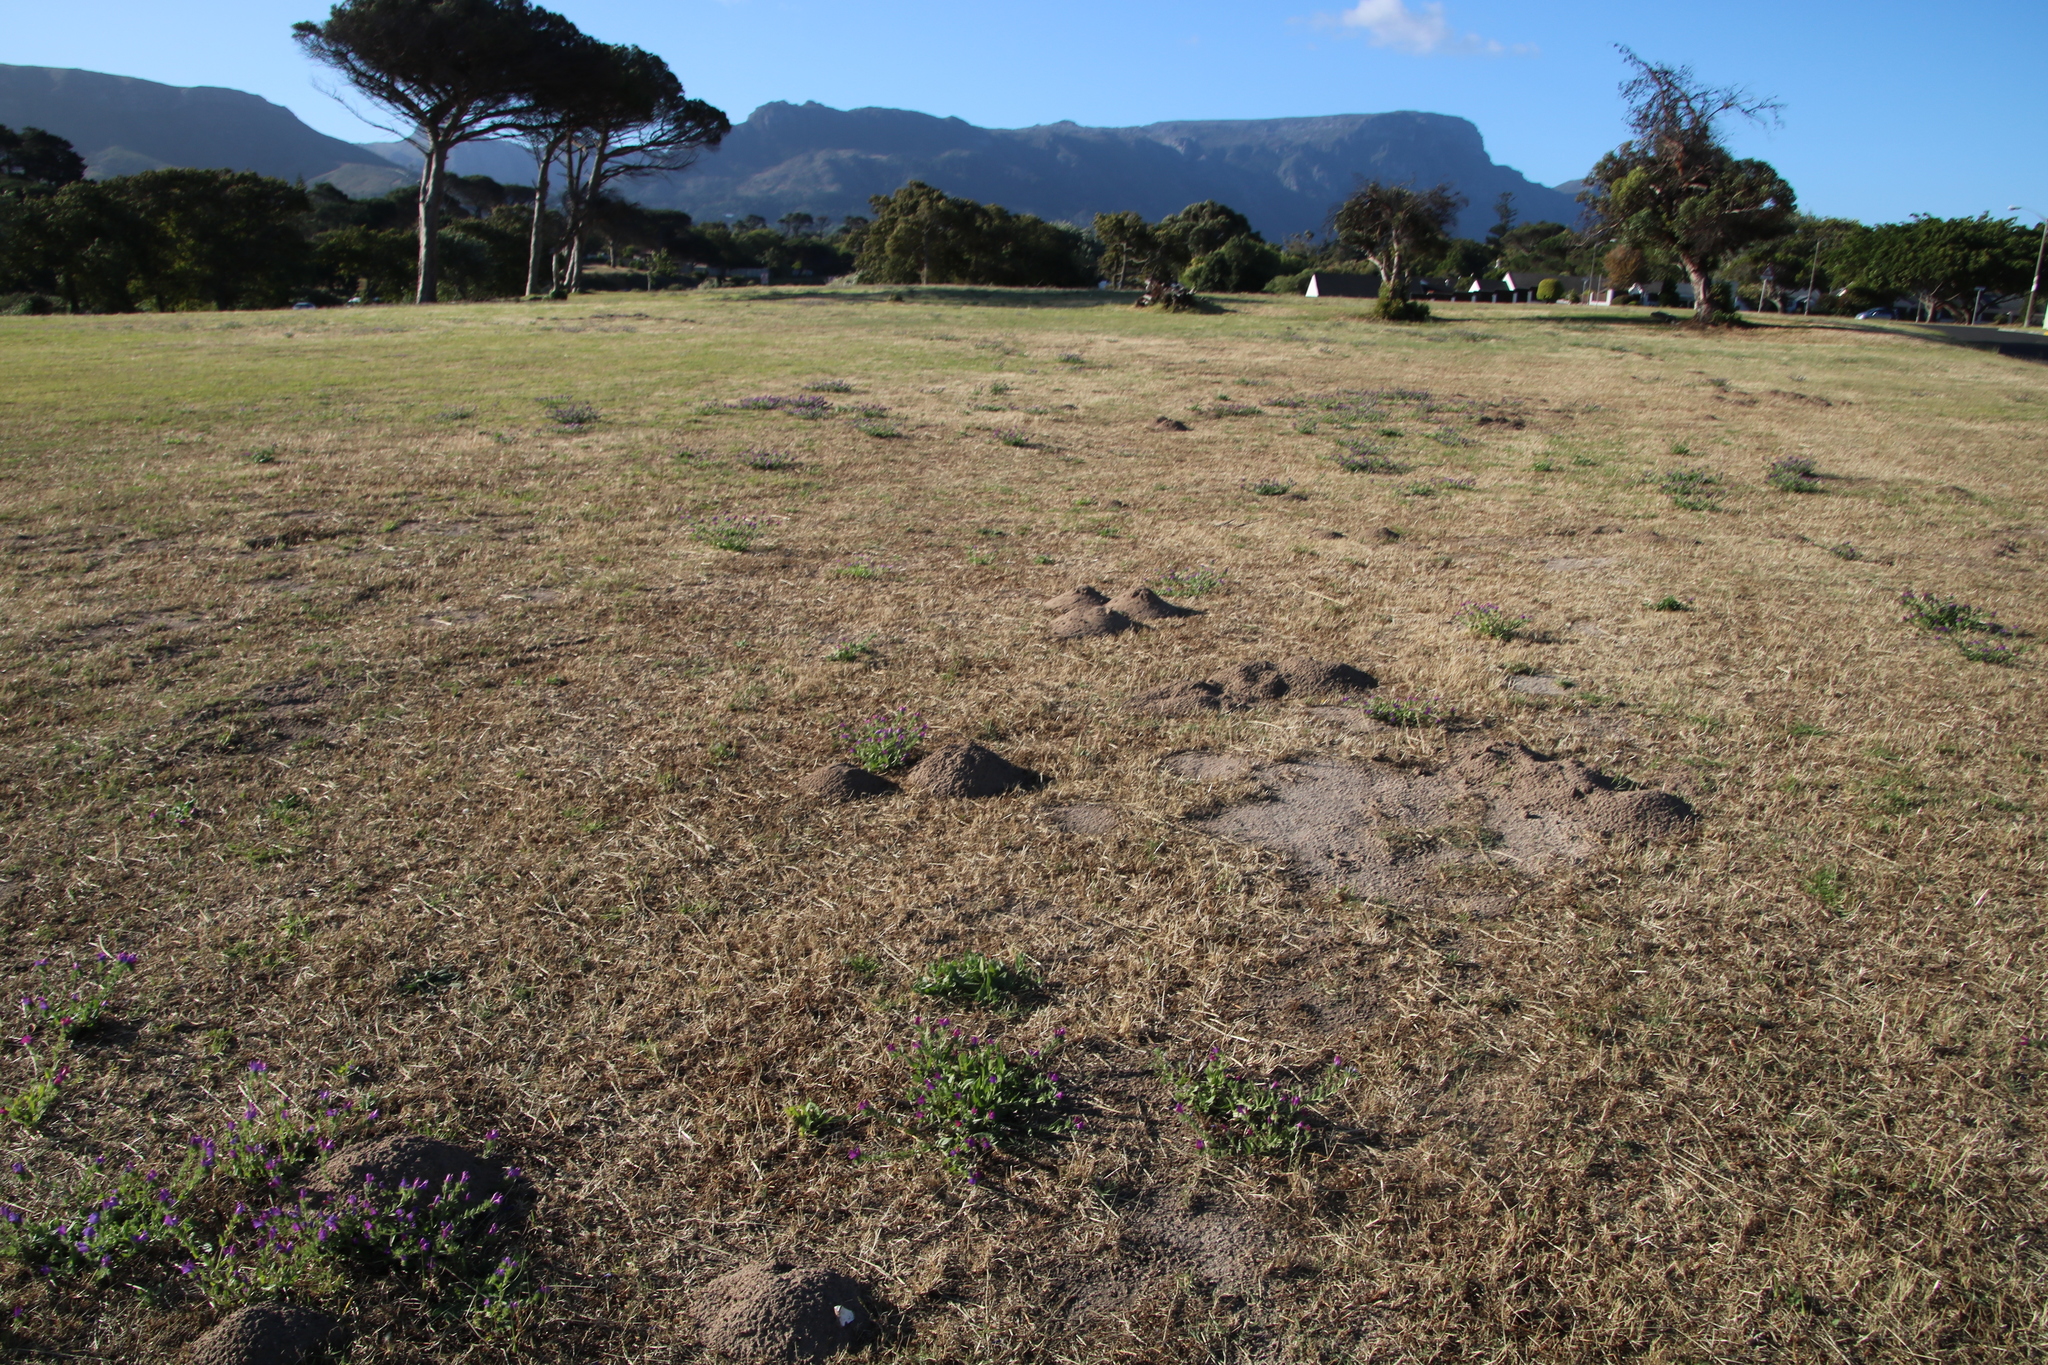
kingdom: Animalia
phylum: Chordata
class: Mammalia
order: Rodentia
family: Bathyergidae
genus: Bathyergus
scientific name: Bathyergus suillus
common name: Cape dune mole rat
